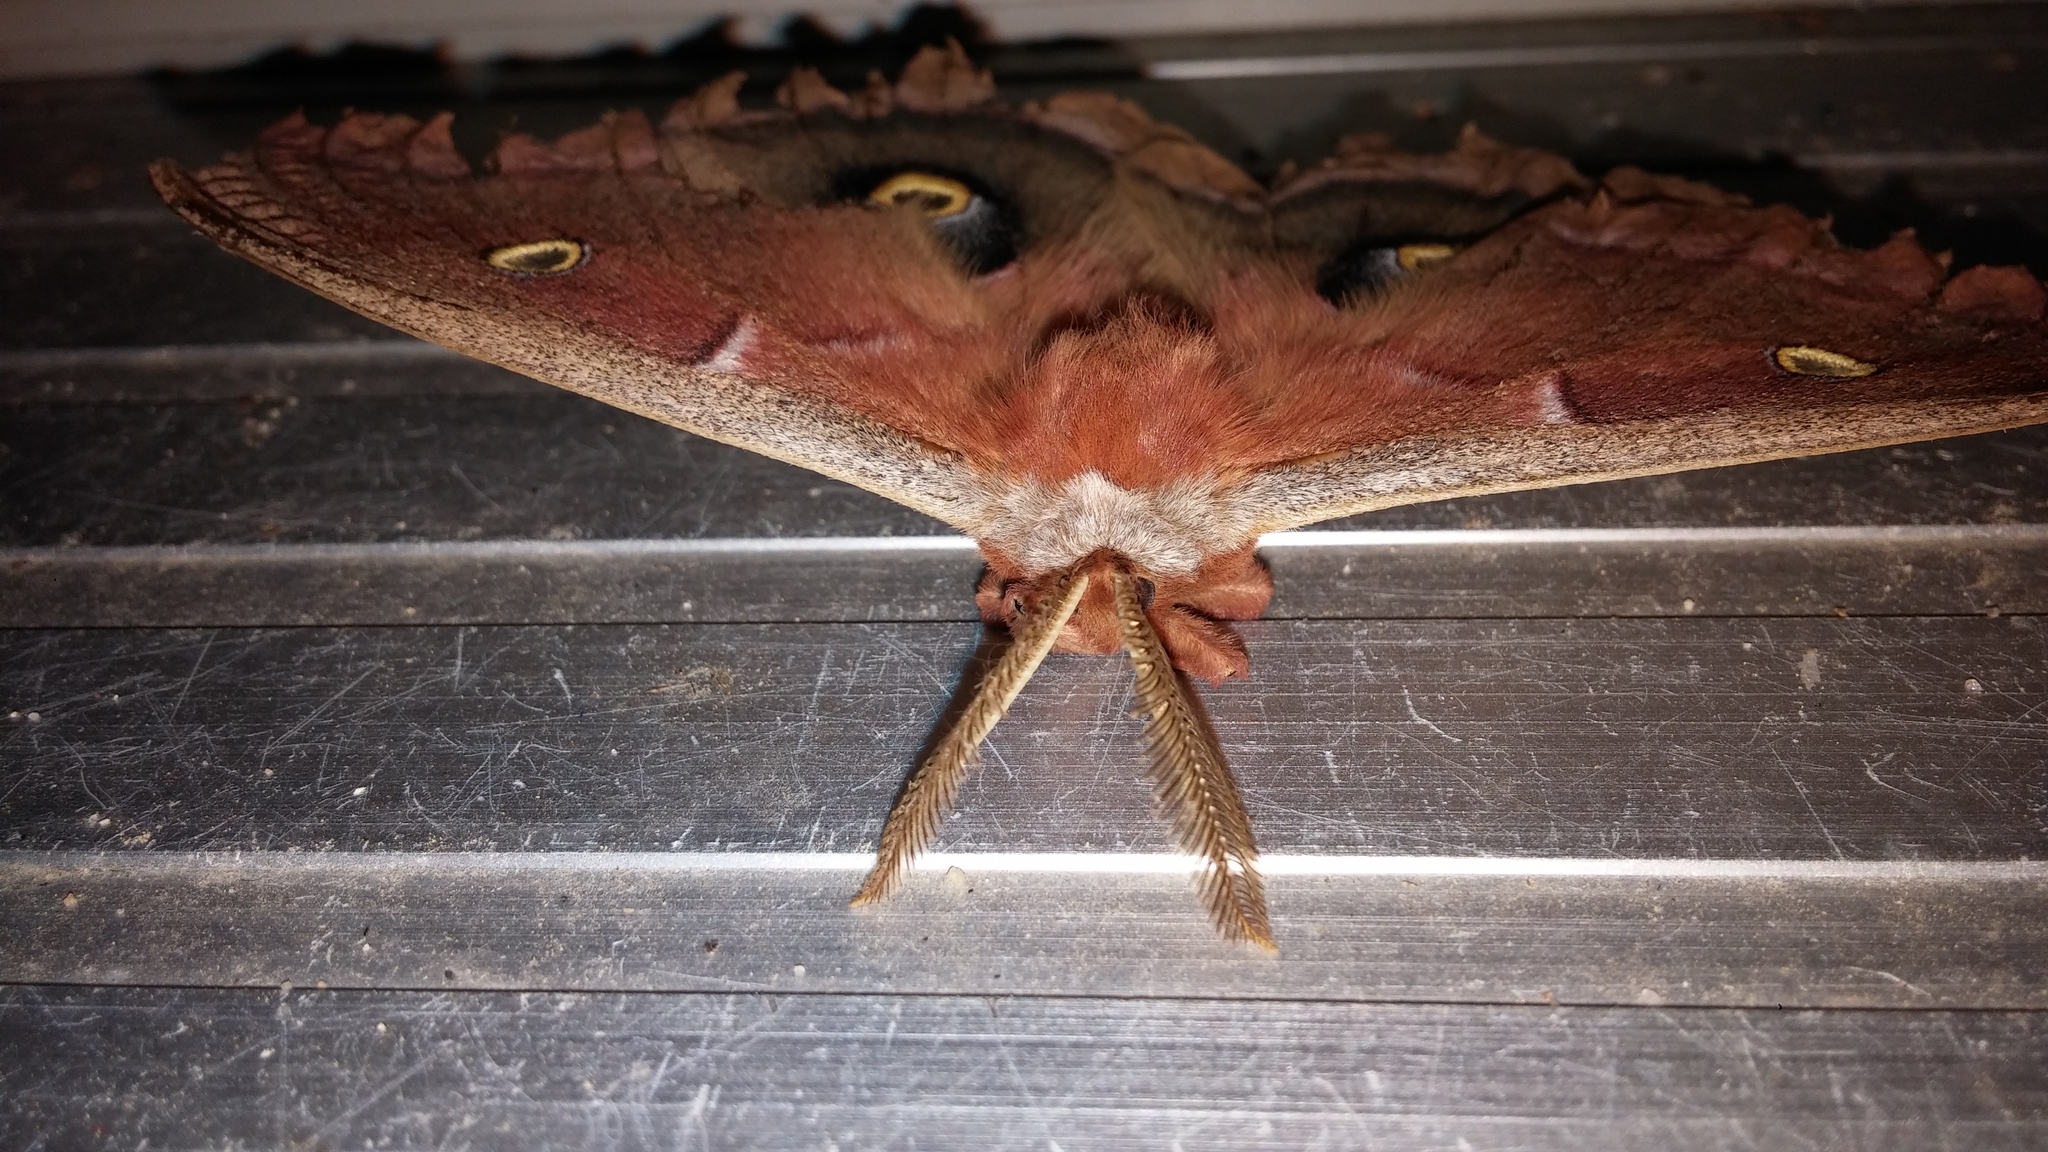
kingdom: Animalia
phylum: Arthropoda
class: Insecta
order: Lepidoptera
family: Saturniidae
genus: Antheraea
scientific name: Antheraea polyphemus
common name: Polyphemus moth
